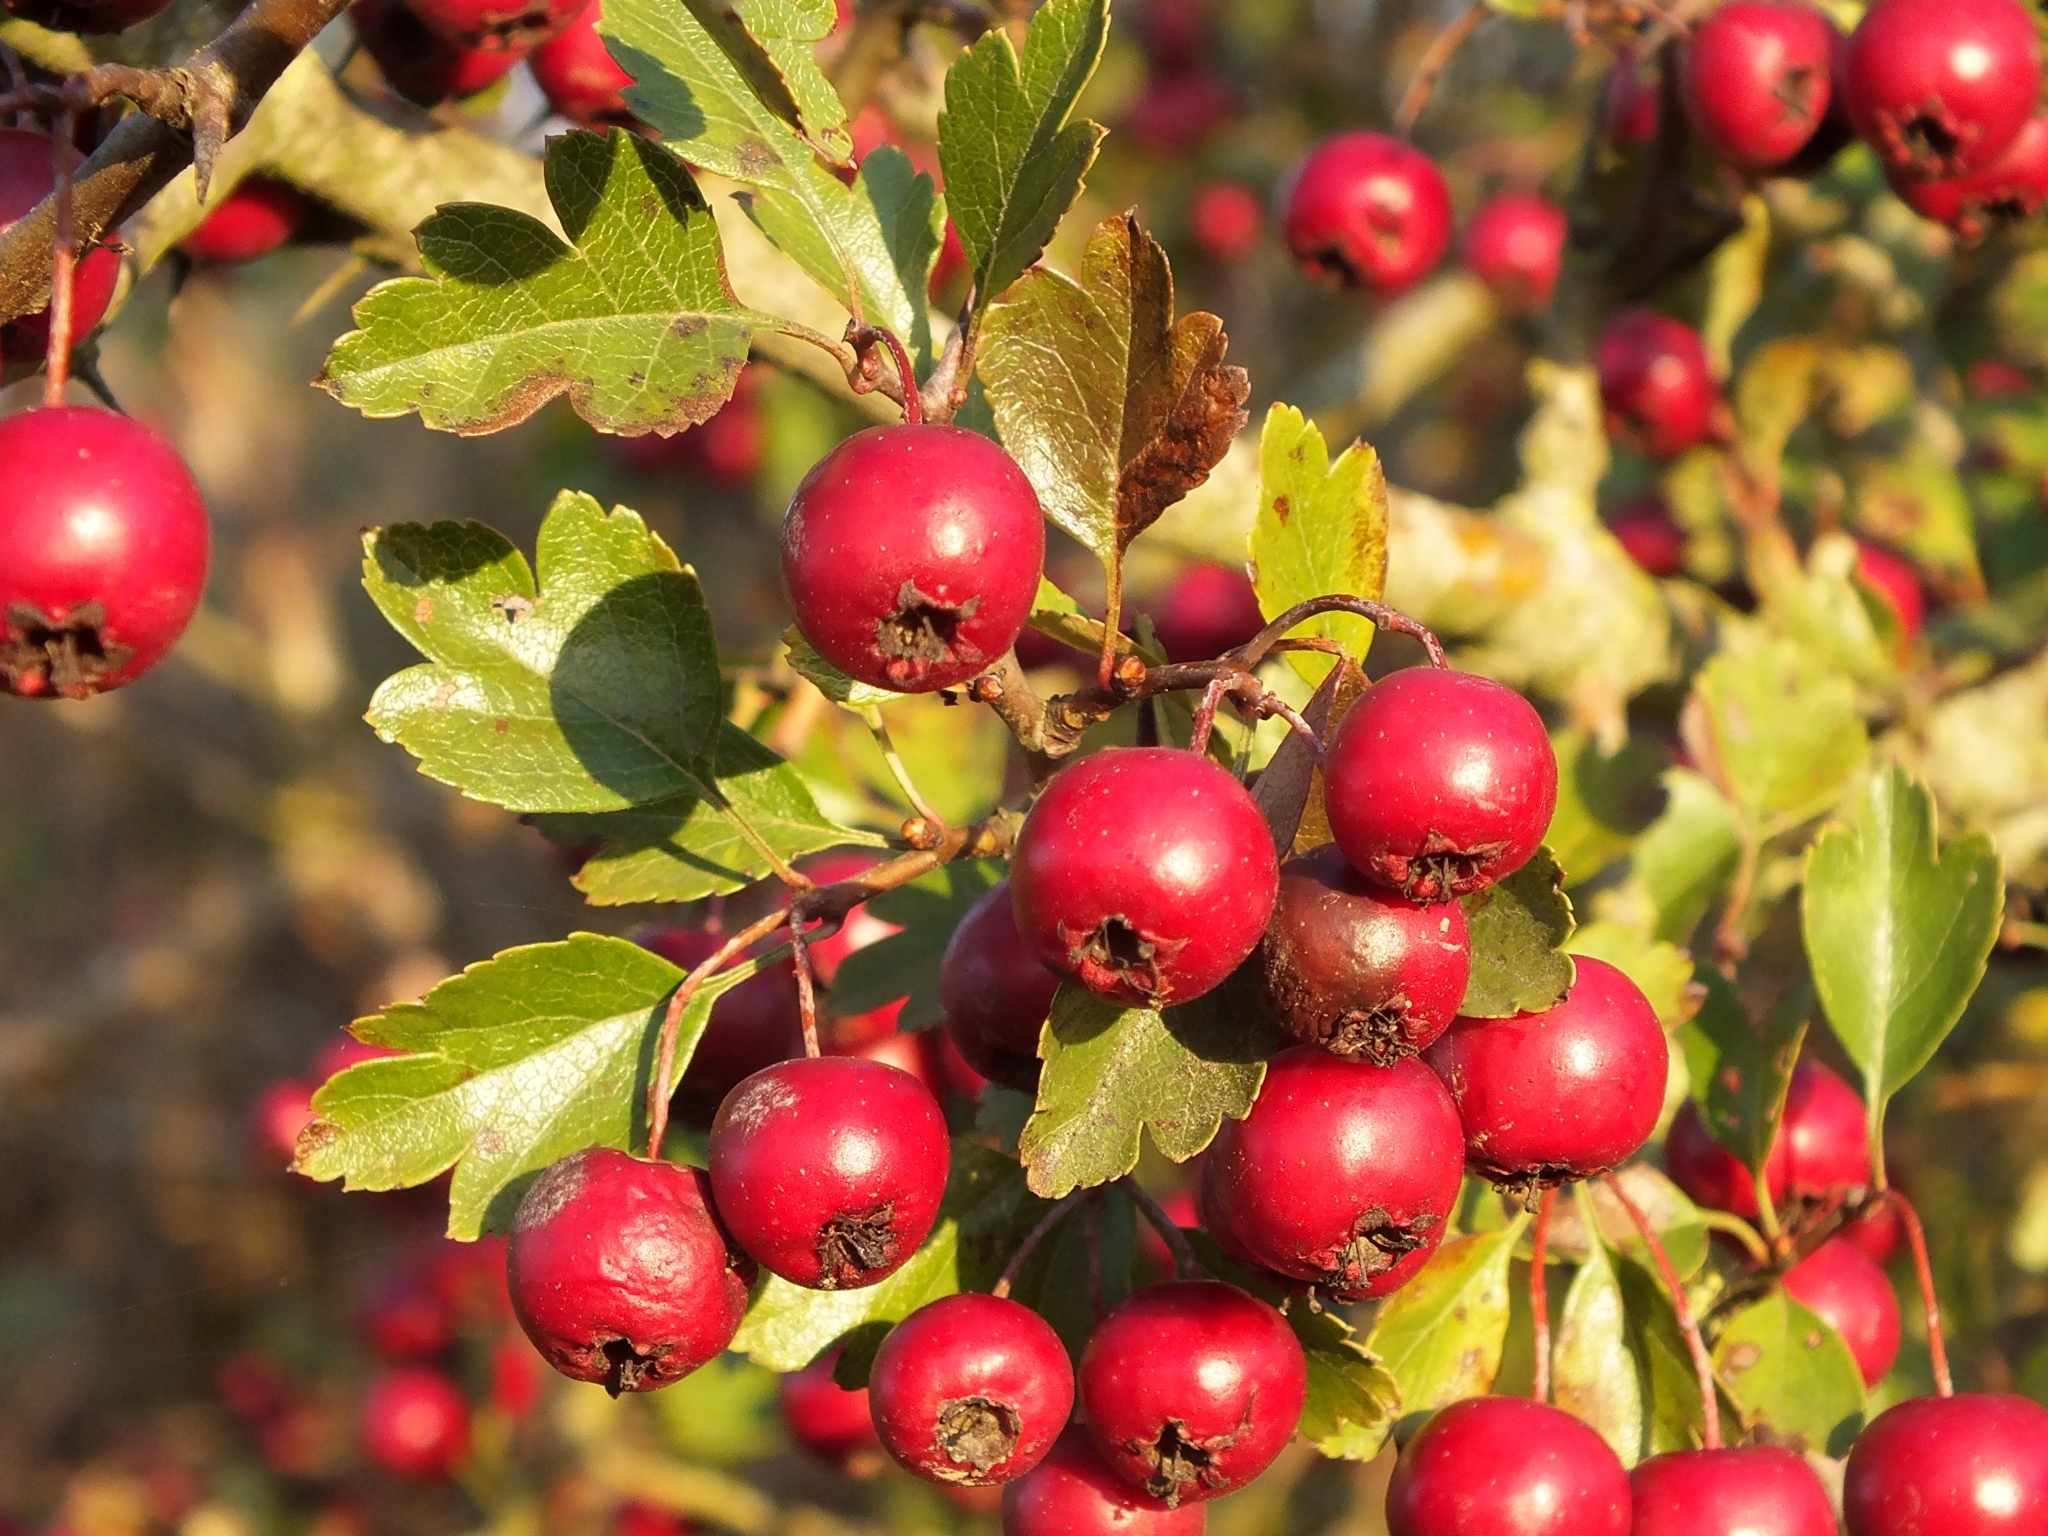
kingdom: Plantae
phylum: Tracheophyta
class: Magnoliopsida
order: Rosales
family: Rosaceae
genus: Crataegus
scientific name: Crataegus laevigata
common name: Midland hawthorn
